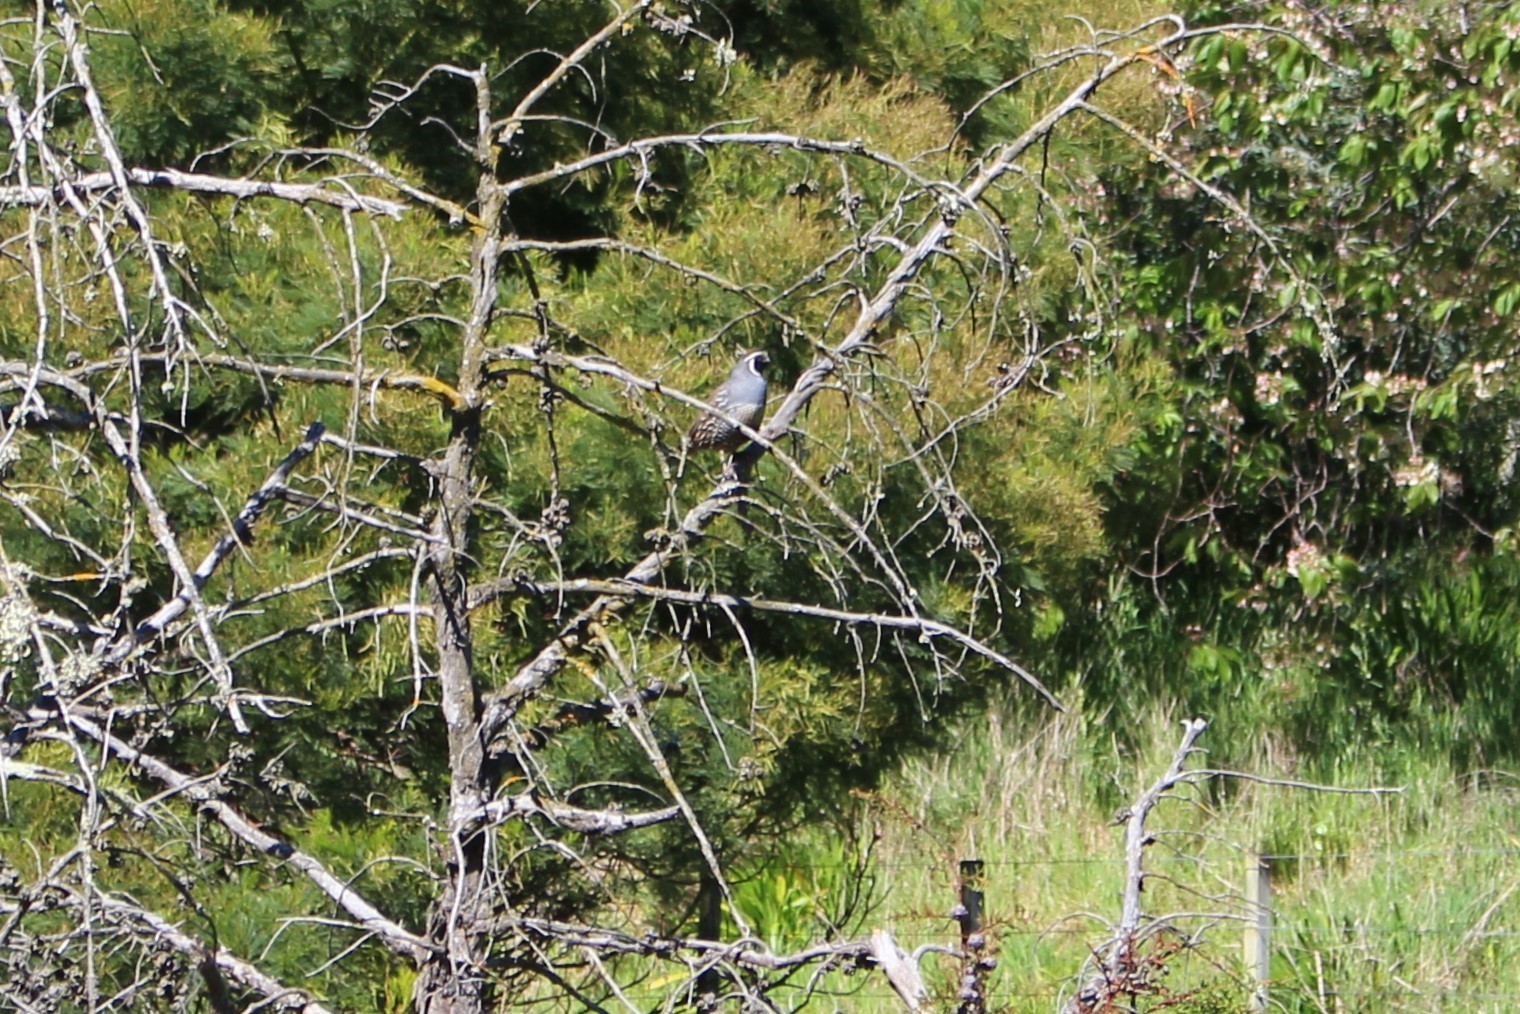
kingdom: Animalia
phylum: Chordata
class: Aves
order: Galliformes
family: Odontophoridae
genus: Callipepla
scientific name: Callipepla californica
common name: California quail
